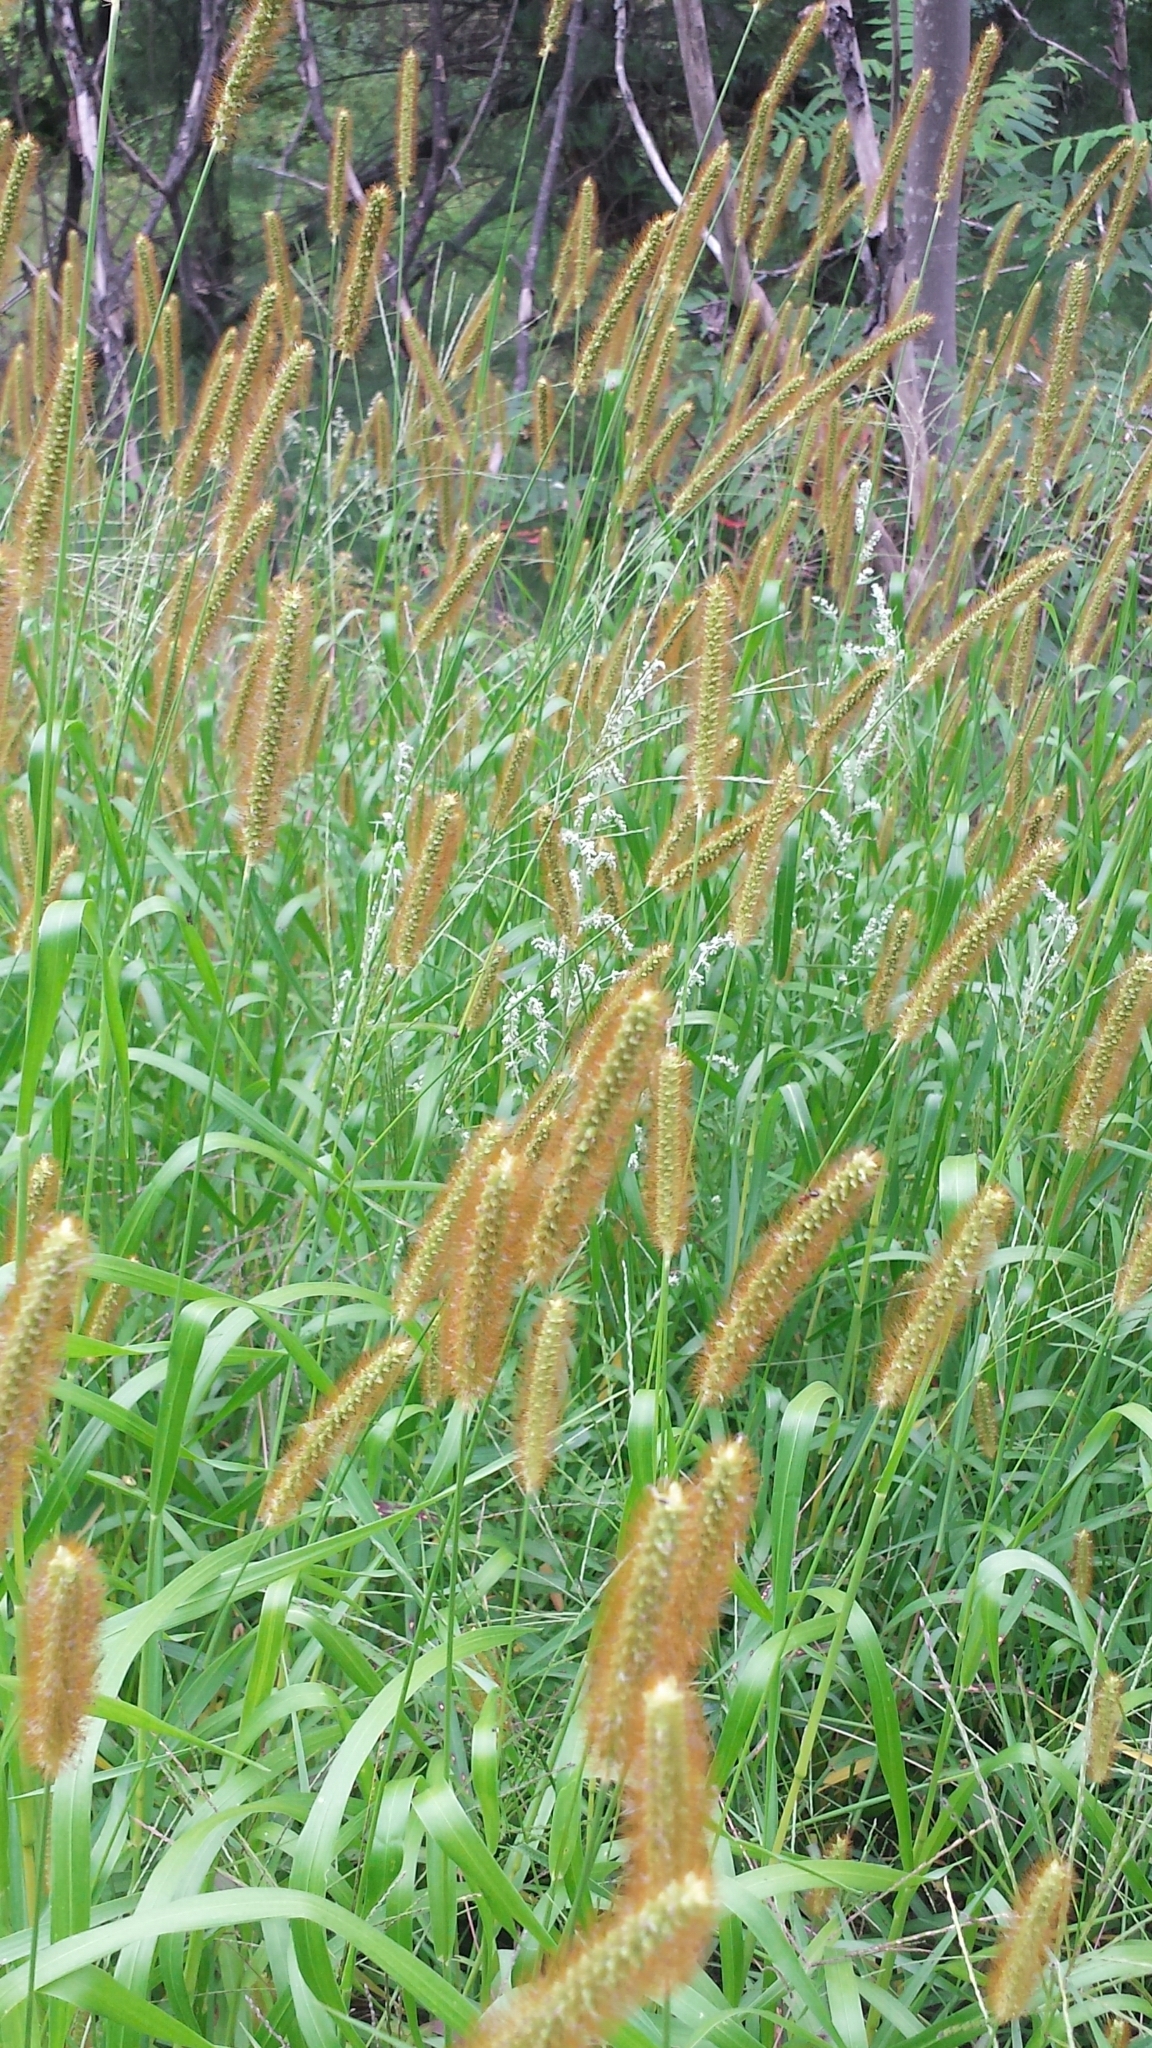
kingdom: Plantae
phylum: Tracheophyta
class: Liliopsida
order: Poales
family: Poaceae
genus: Setaria
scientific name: Setaria pumila
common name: Yellow bristle-grass
